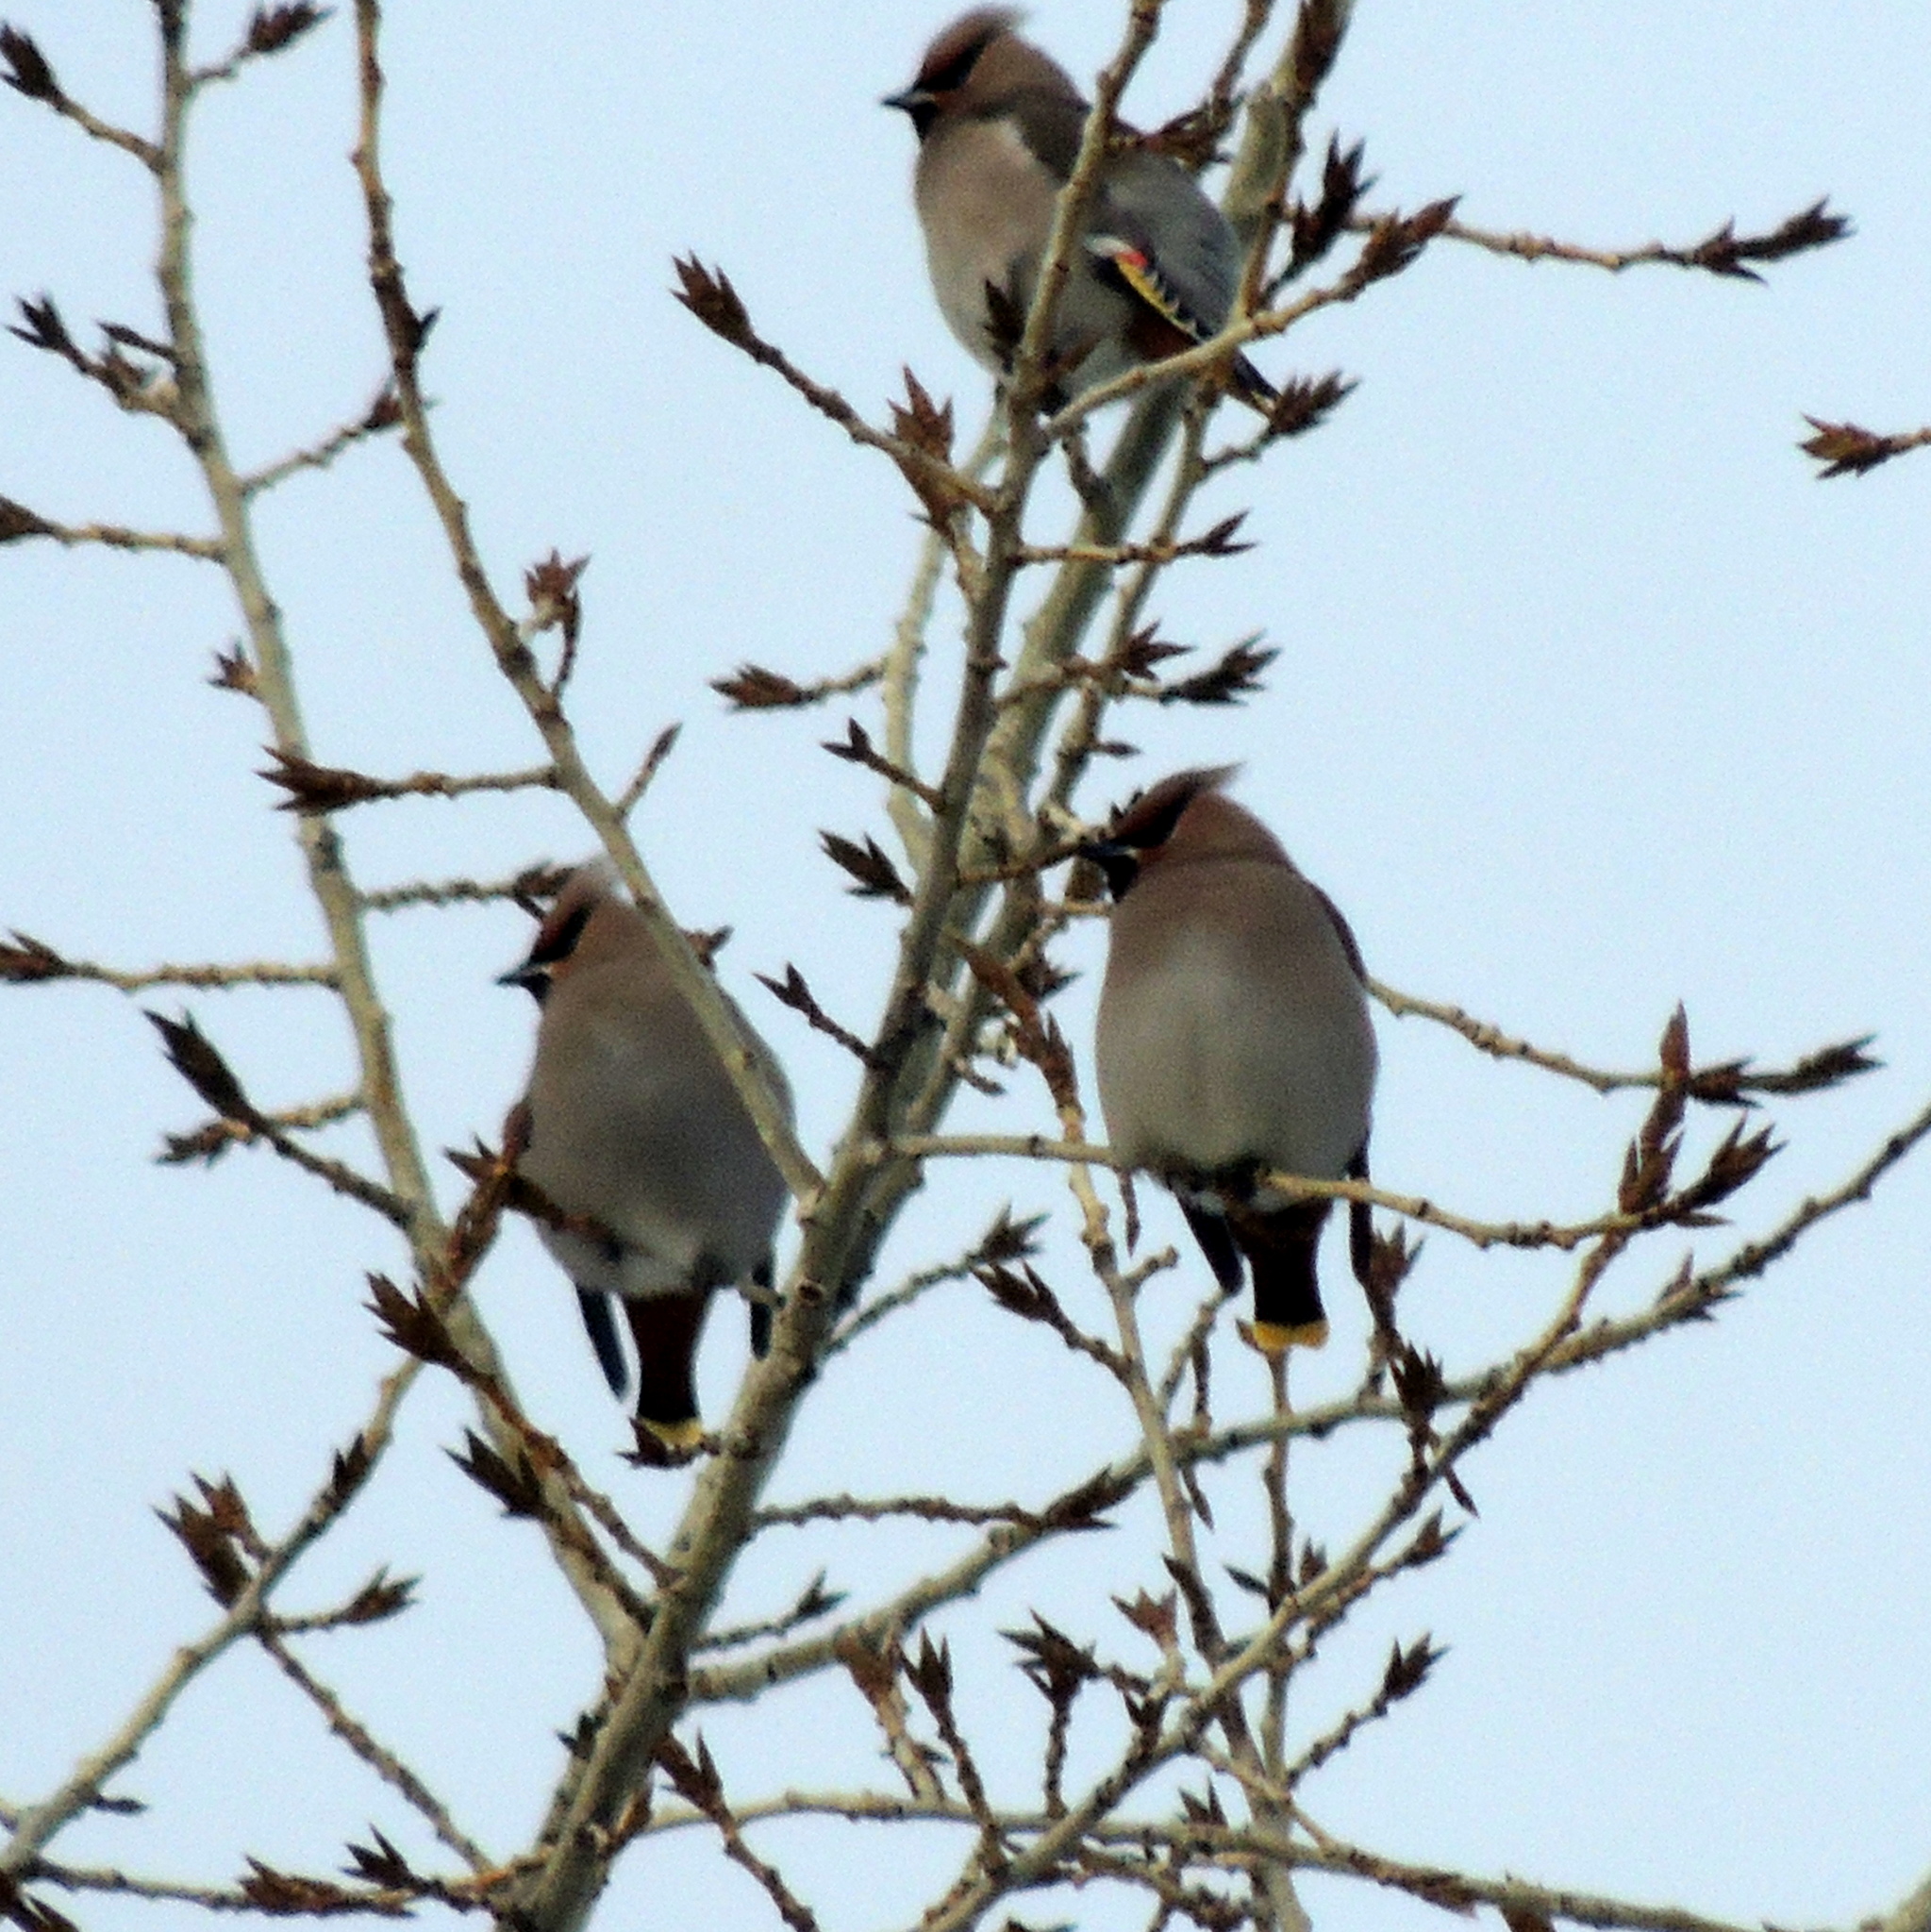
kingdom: Animalia
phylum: Chordata
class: Aves
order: Passeriformes
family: Bombycillidae
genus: Bombycilla
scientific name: Bombycilla garrulus
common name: Bohemian waxwing
